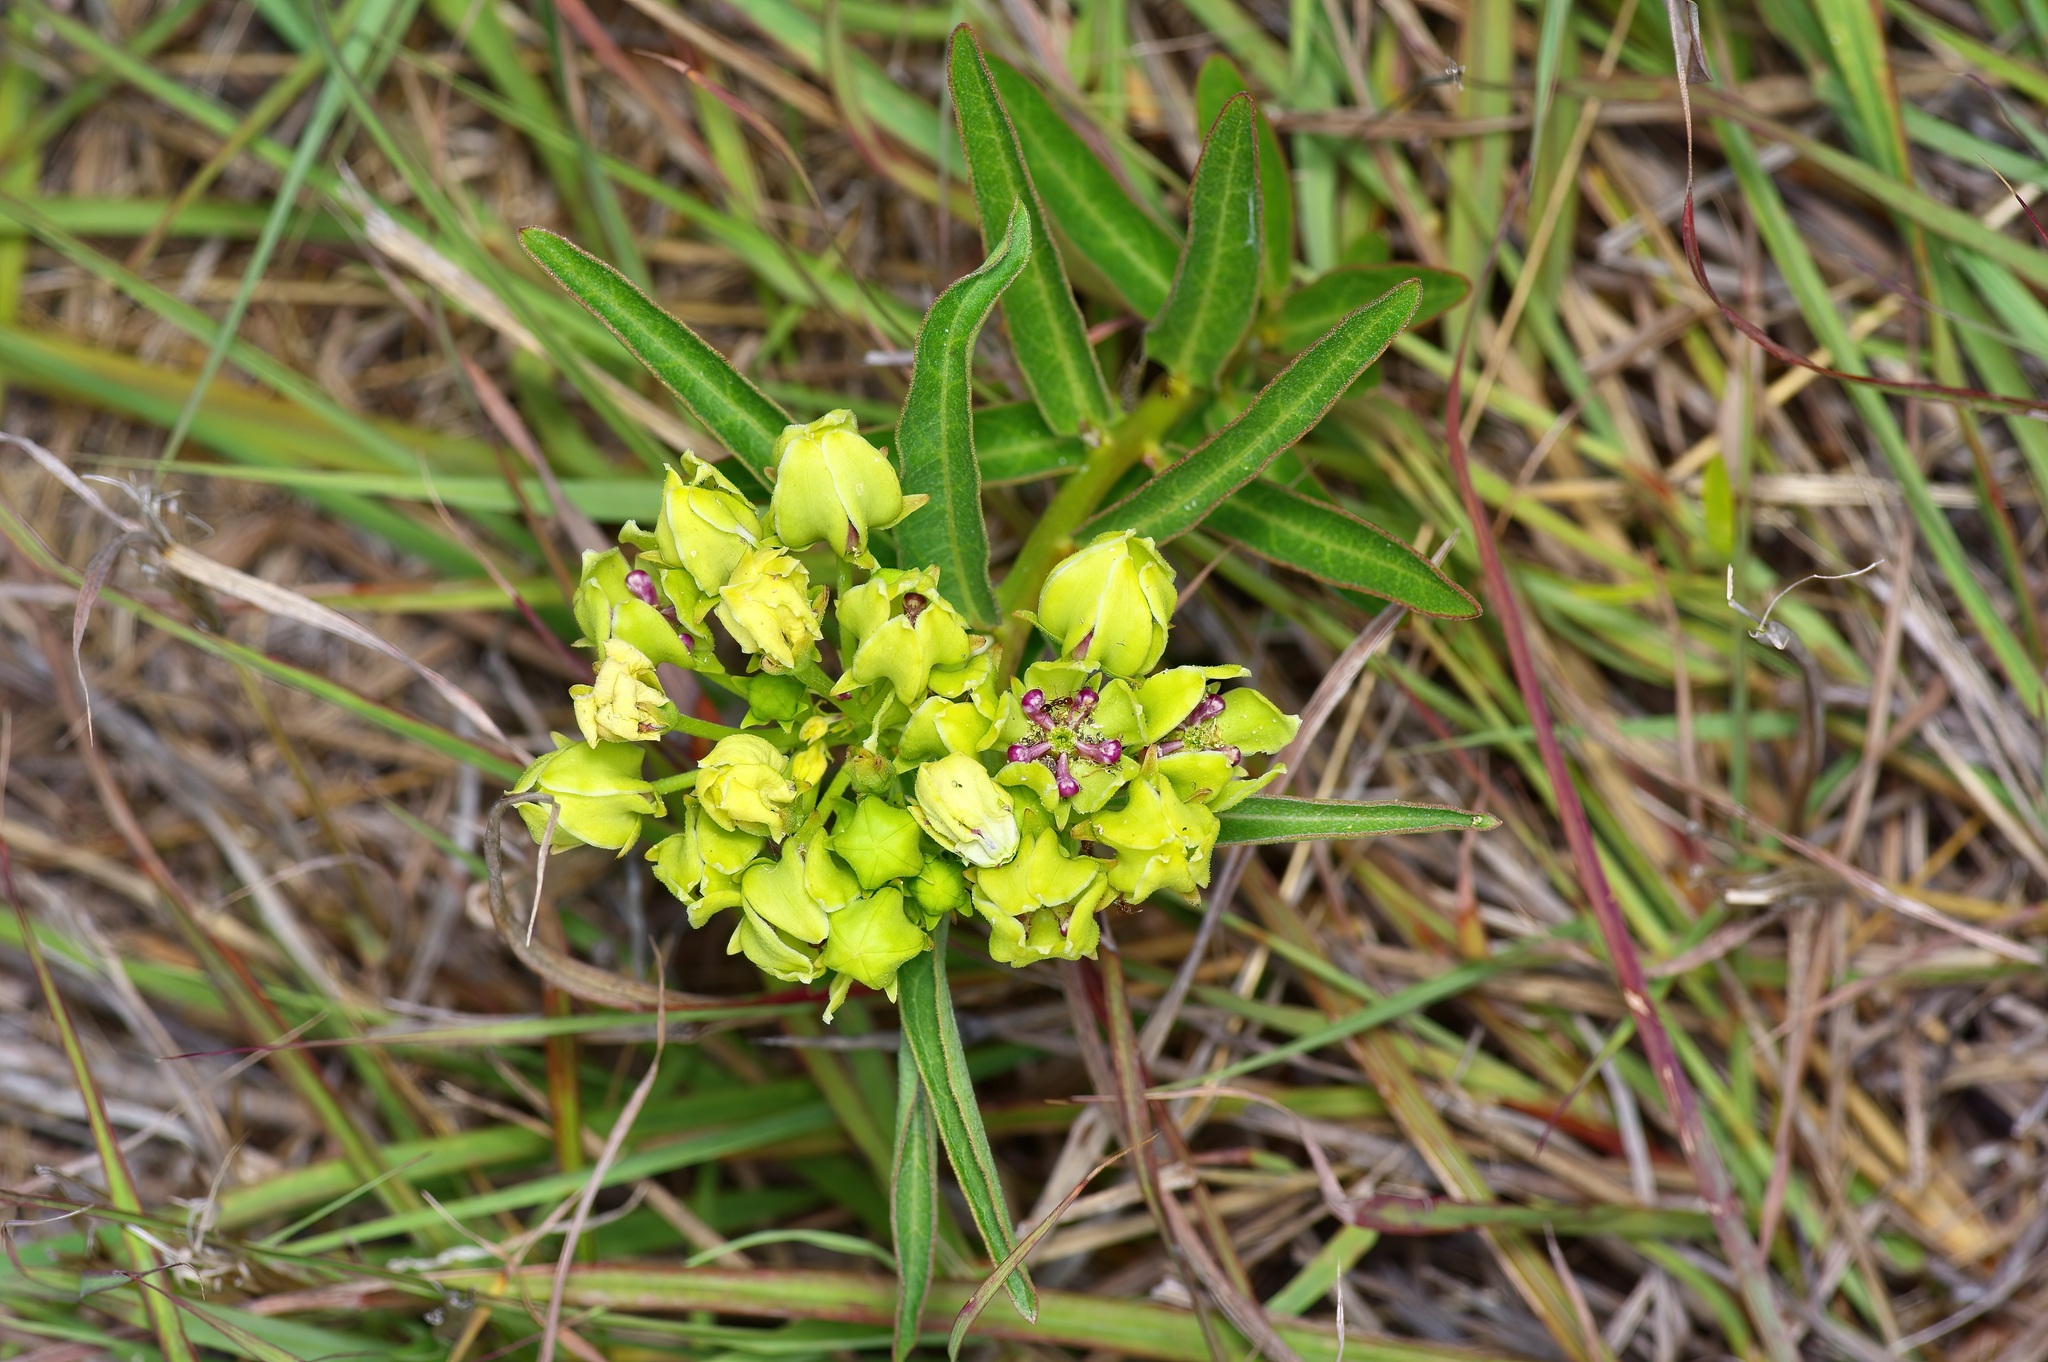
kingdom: Plantae
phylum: Tracheophyta
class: Magnoliopsida
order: Gentianales
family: Apocynaceae
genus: Asclepias
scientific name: Asclepias viridis
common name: Antelope-horns
